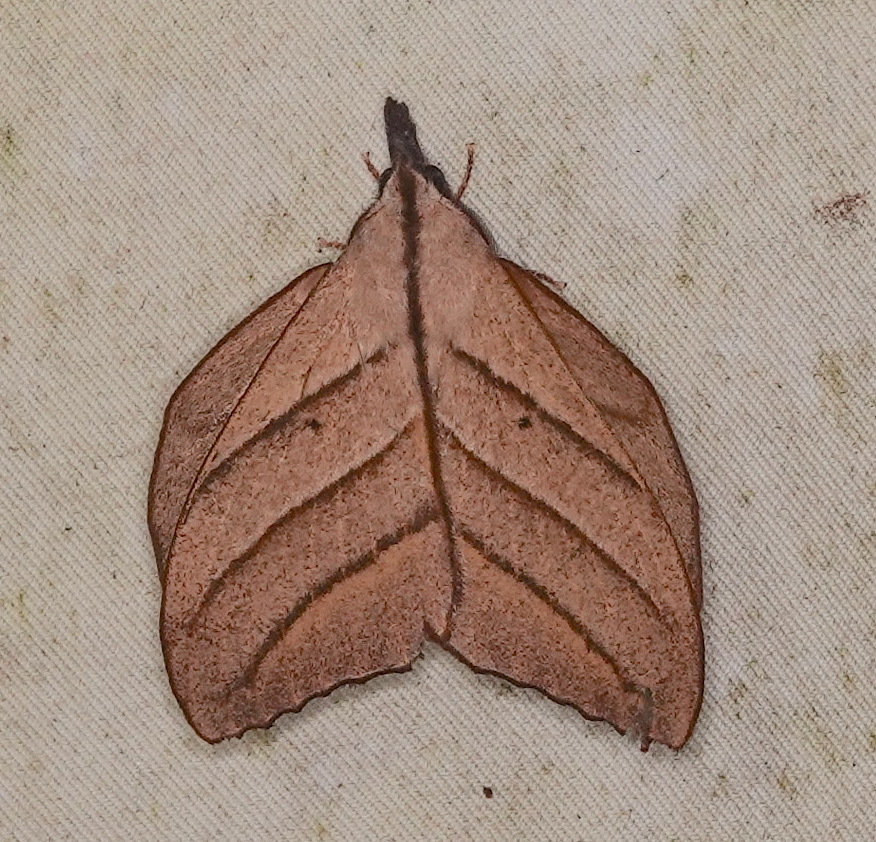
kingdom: Animalia
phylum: Arthropoda
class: Insecta
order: Lepidoptera
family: Lasiocampidae
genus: Arguda
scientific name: Arguda insulindiana
